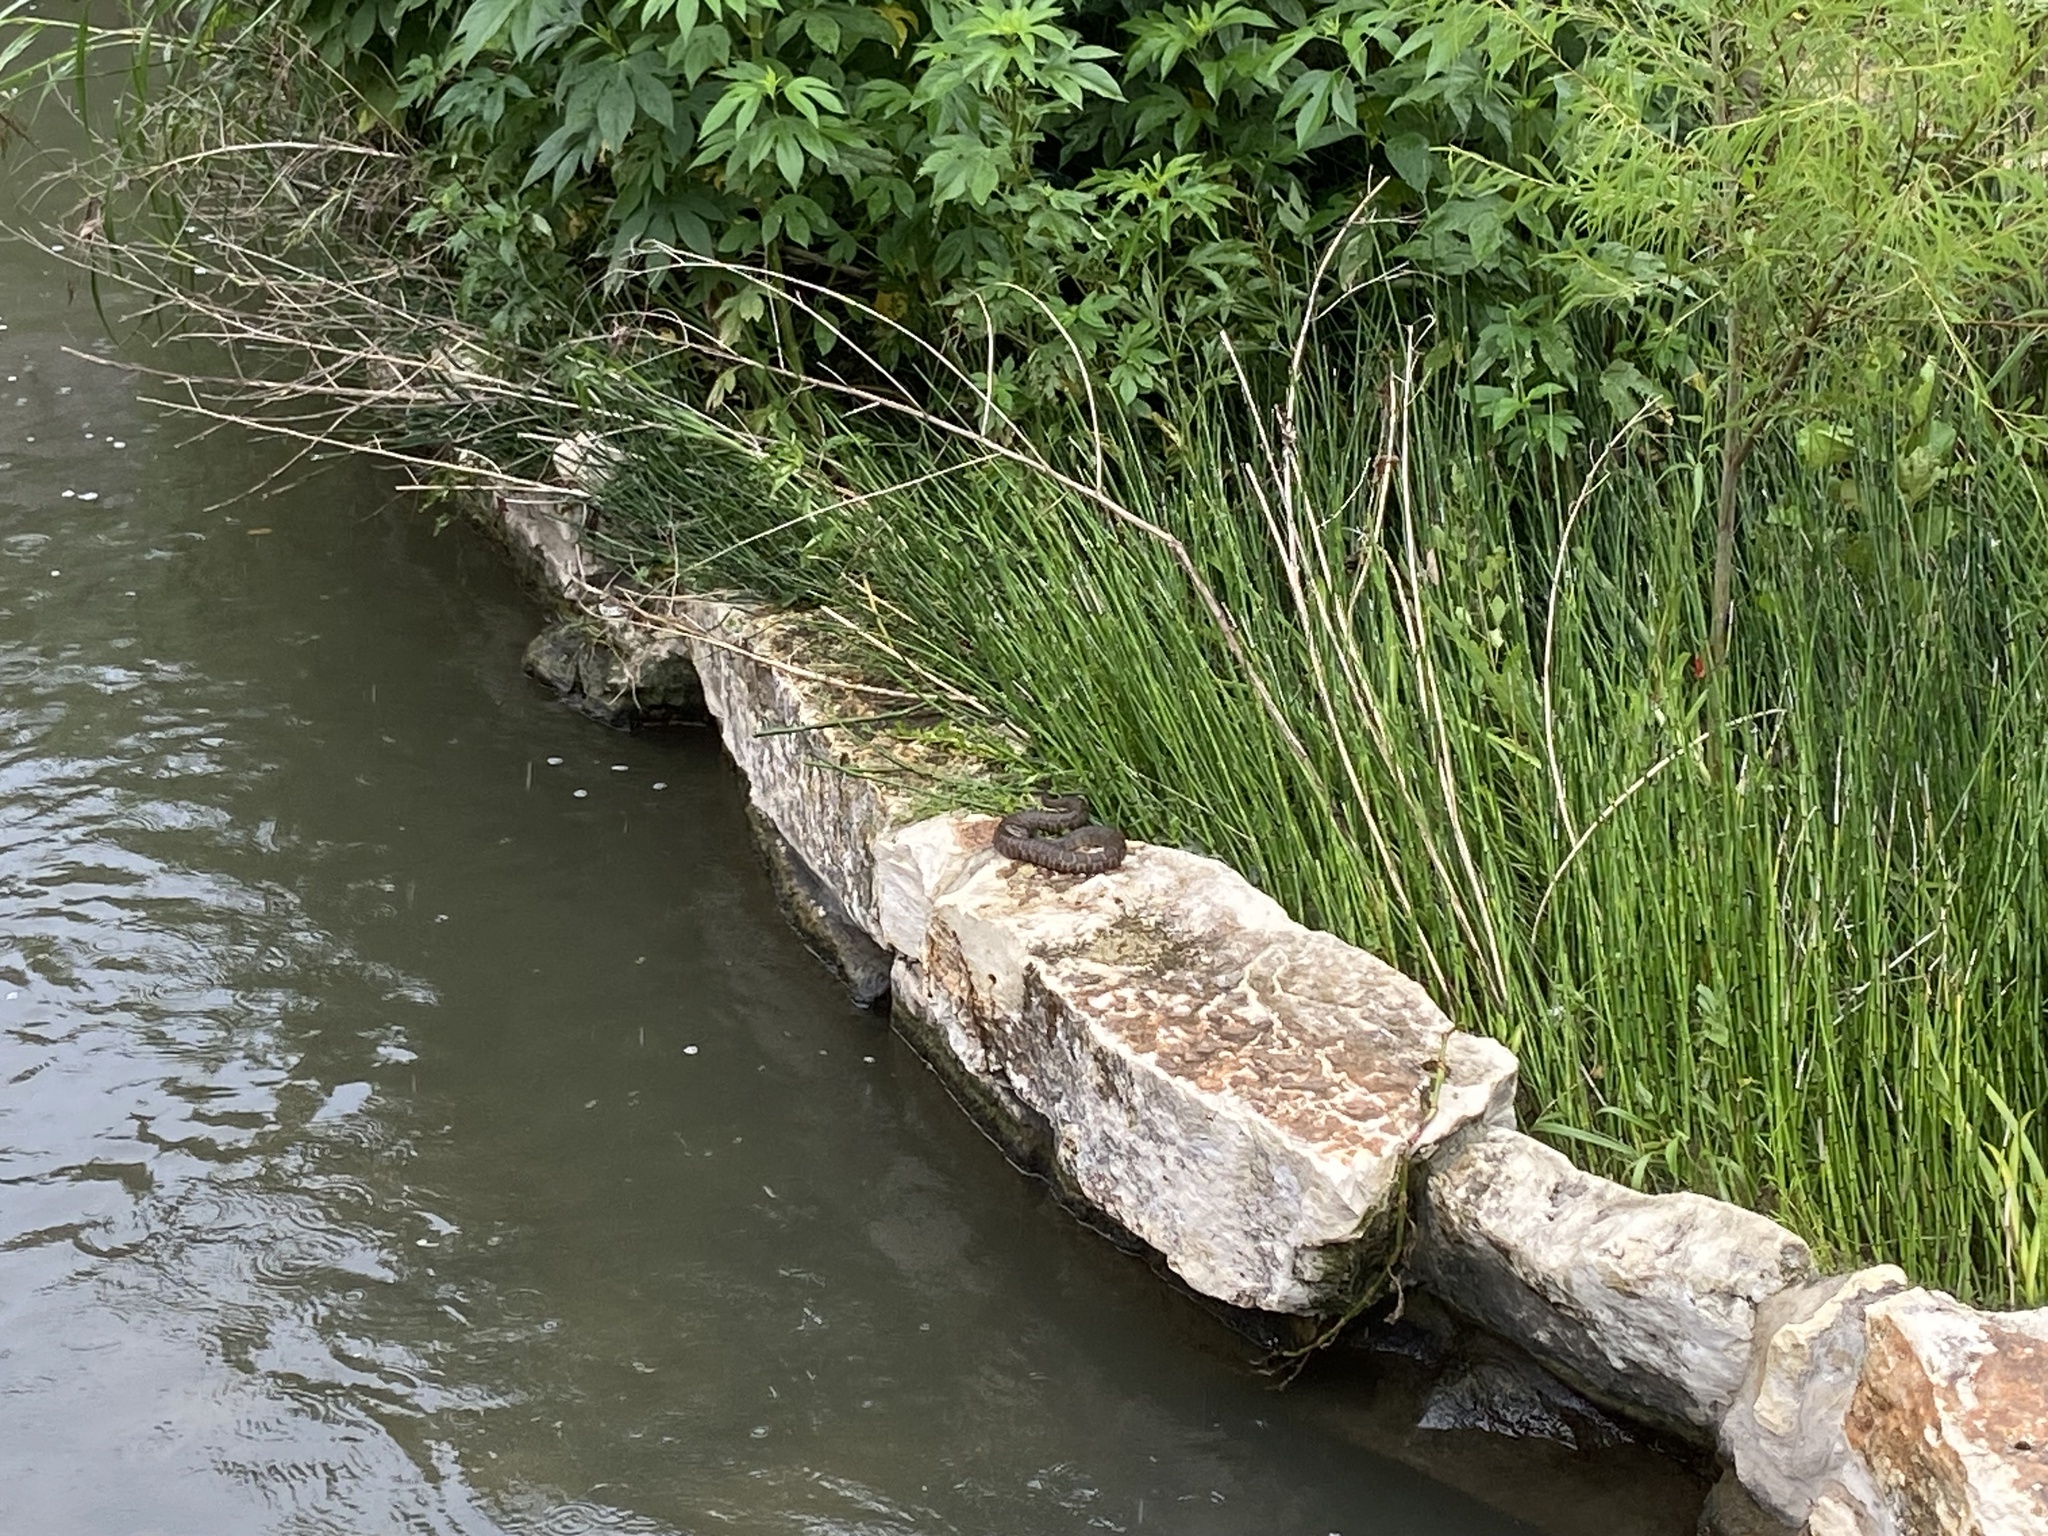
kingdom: Animalia
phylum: Chordata
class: Squamata
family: Colubridae
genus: Nerodia
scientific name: Nerodia erythrogaster
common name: Plainbelly water snake
